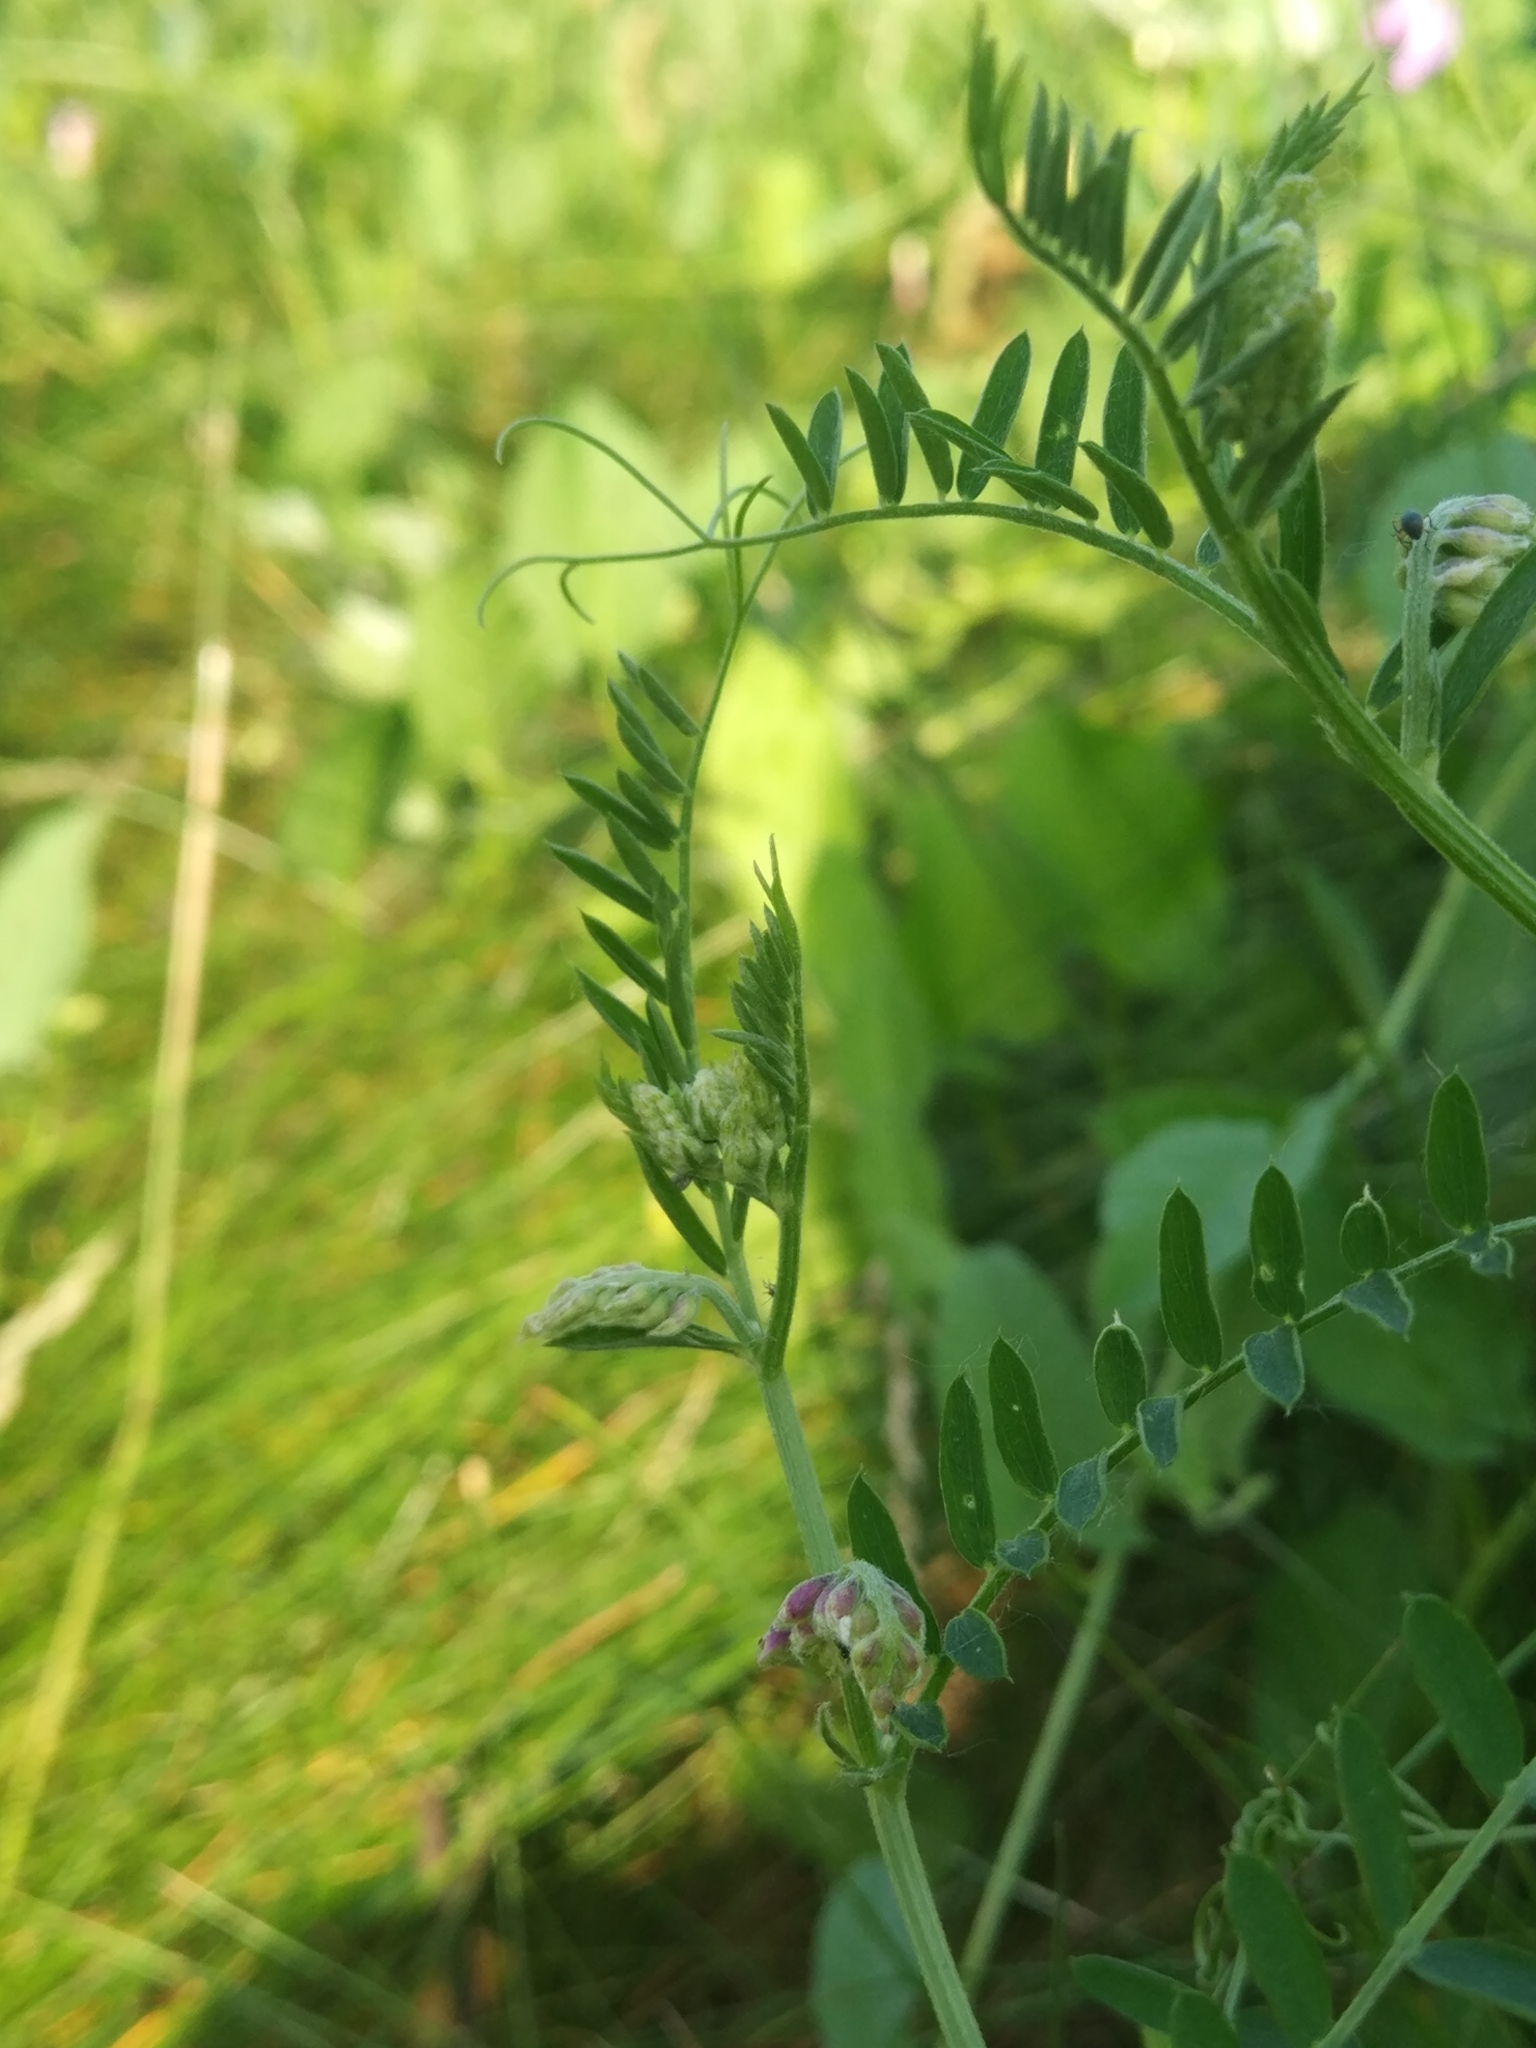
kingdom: Plantae
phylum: Tracheophyta
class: Magnoliopsida
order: Fabales
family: Fabaceae
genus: Vicia
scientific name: Vicia cracca
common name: Bird vetch
